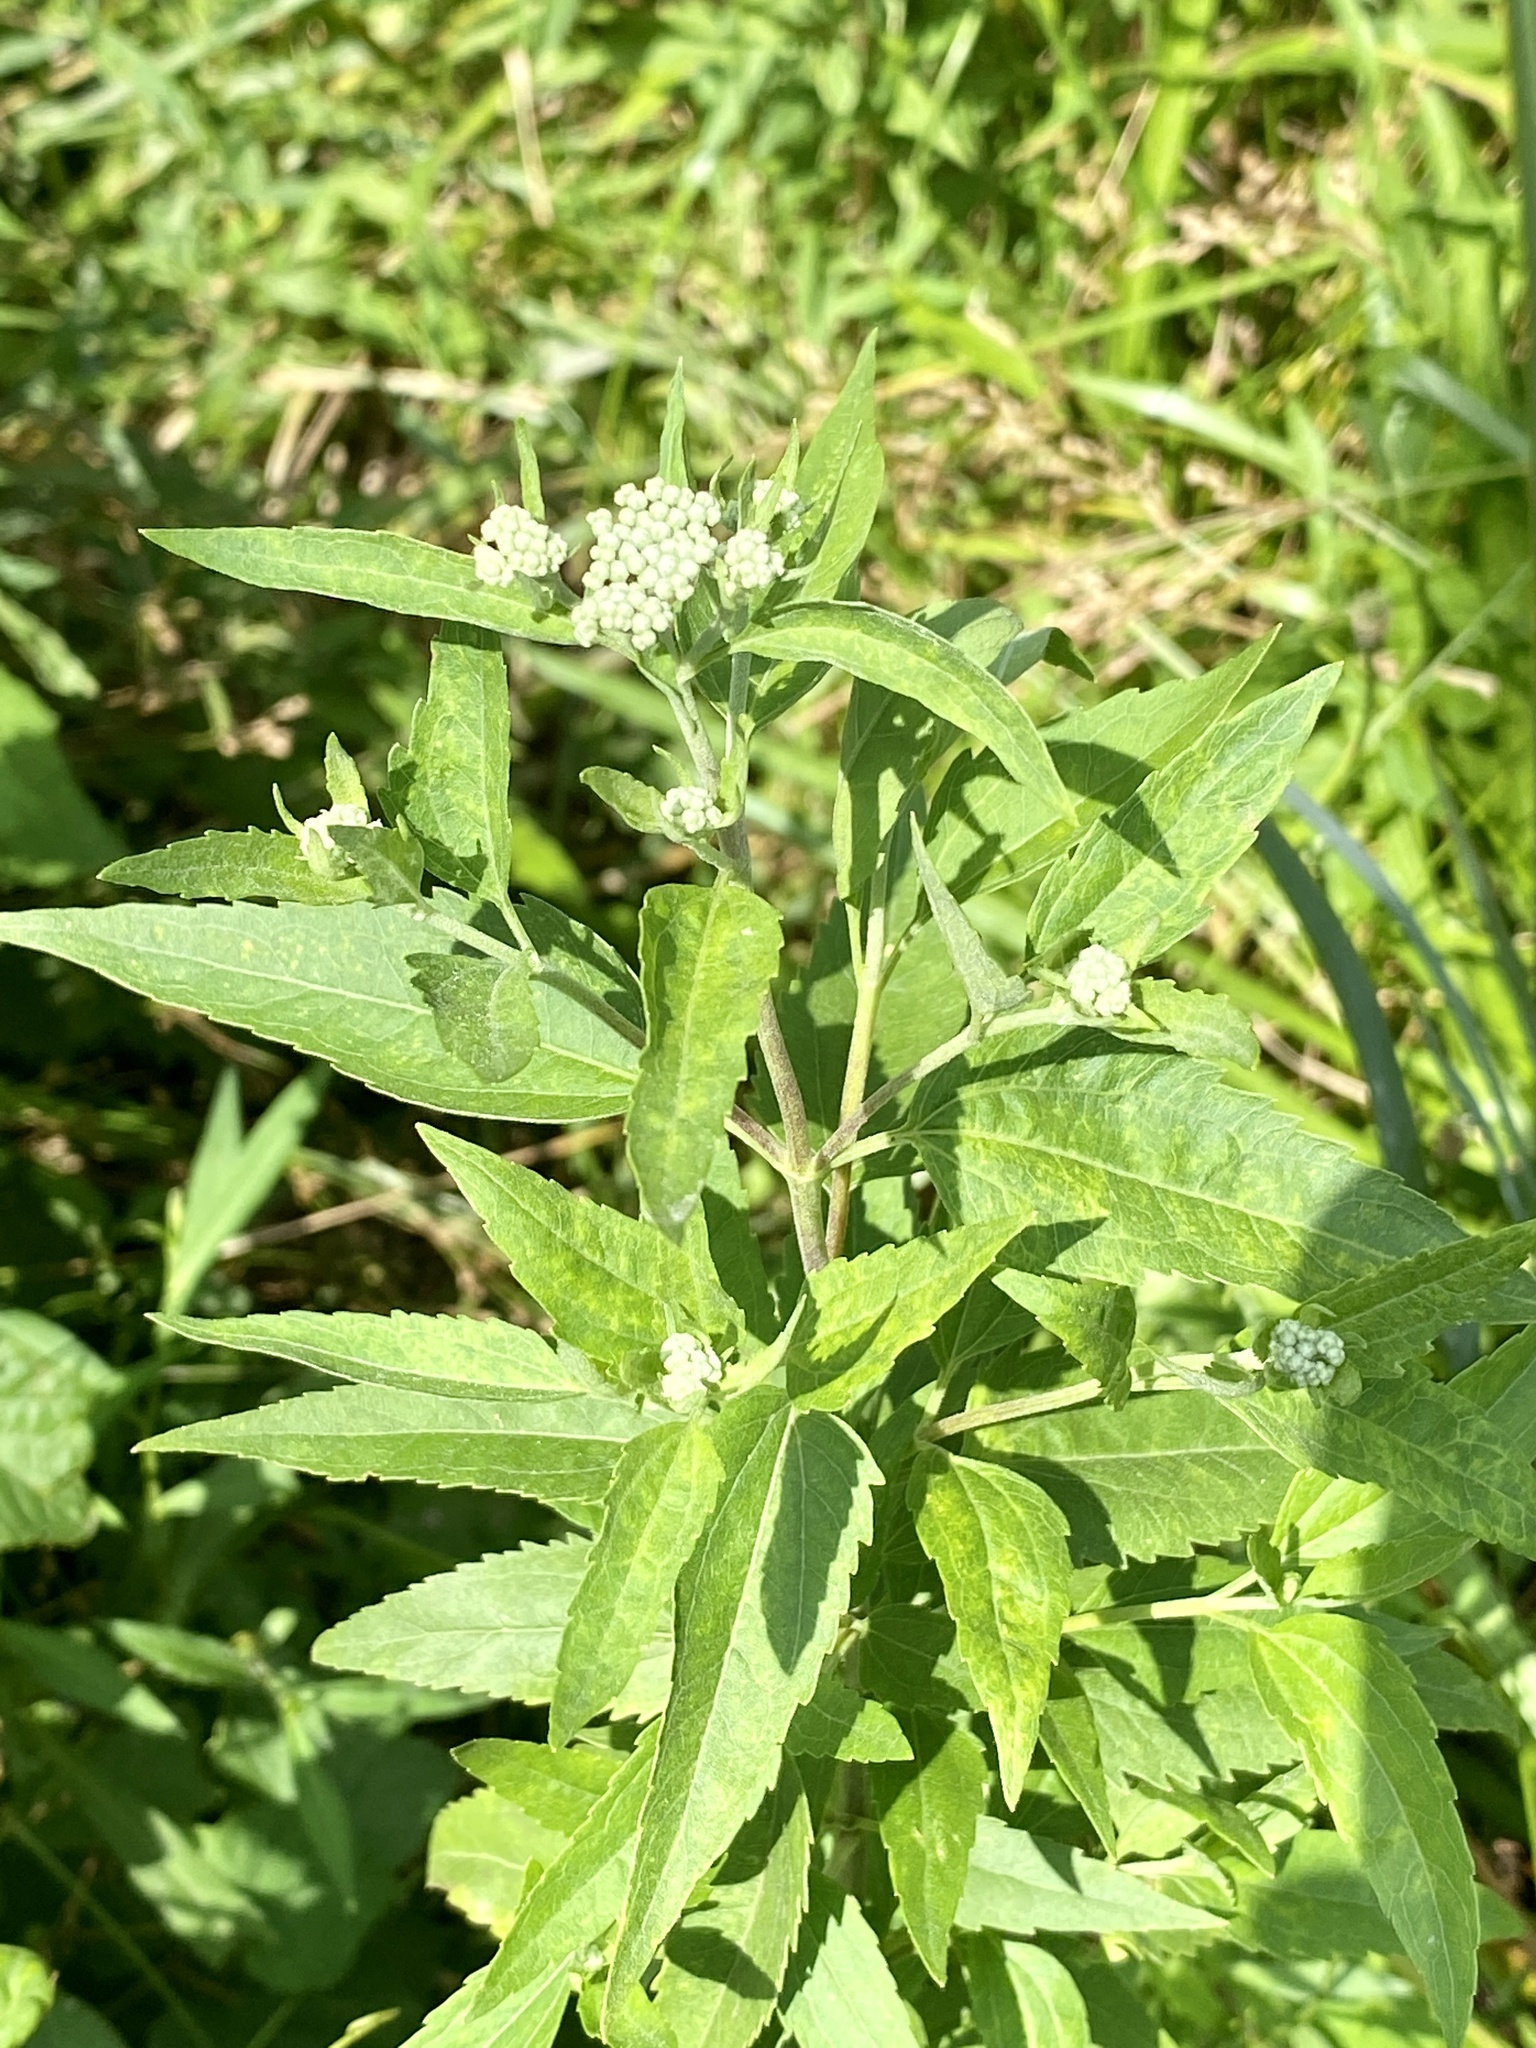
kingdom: Plantae
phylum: Tracheophyta
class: Magnoliopsida
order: Asterales
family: Asteraceae
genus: Eupatorium
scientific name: Eupatorium serotinum
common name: Late boneset
